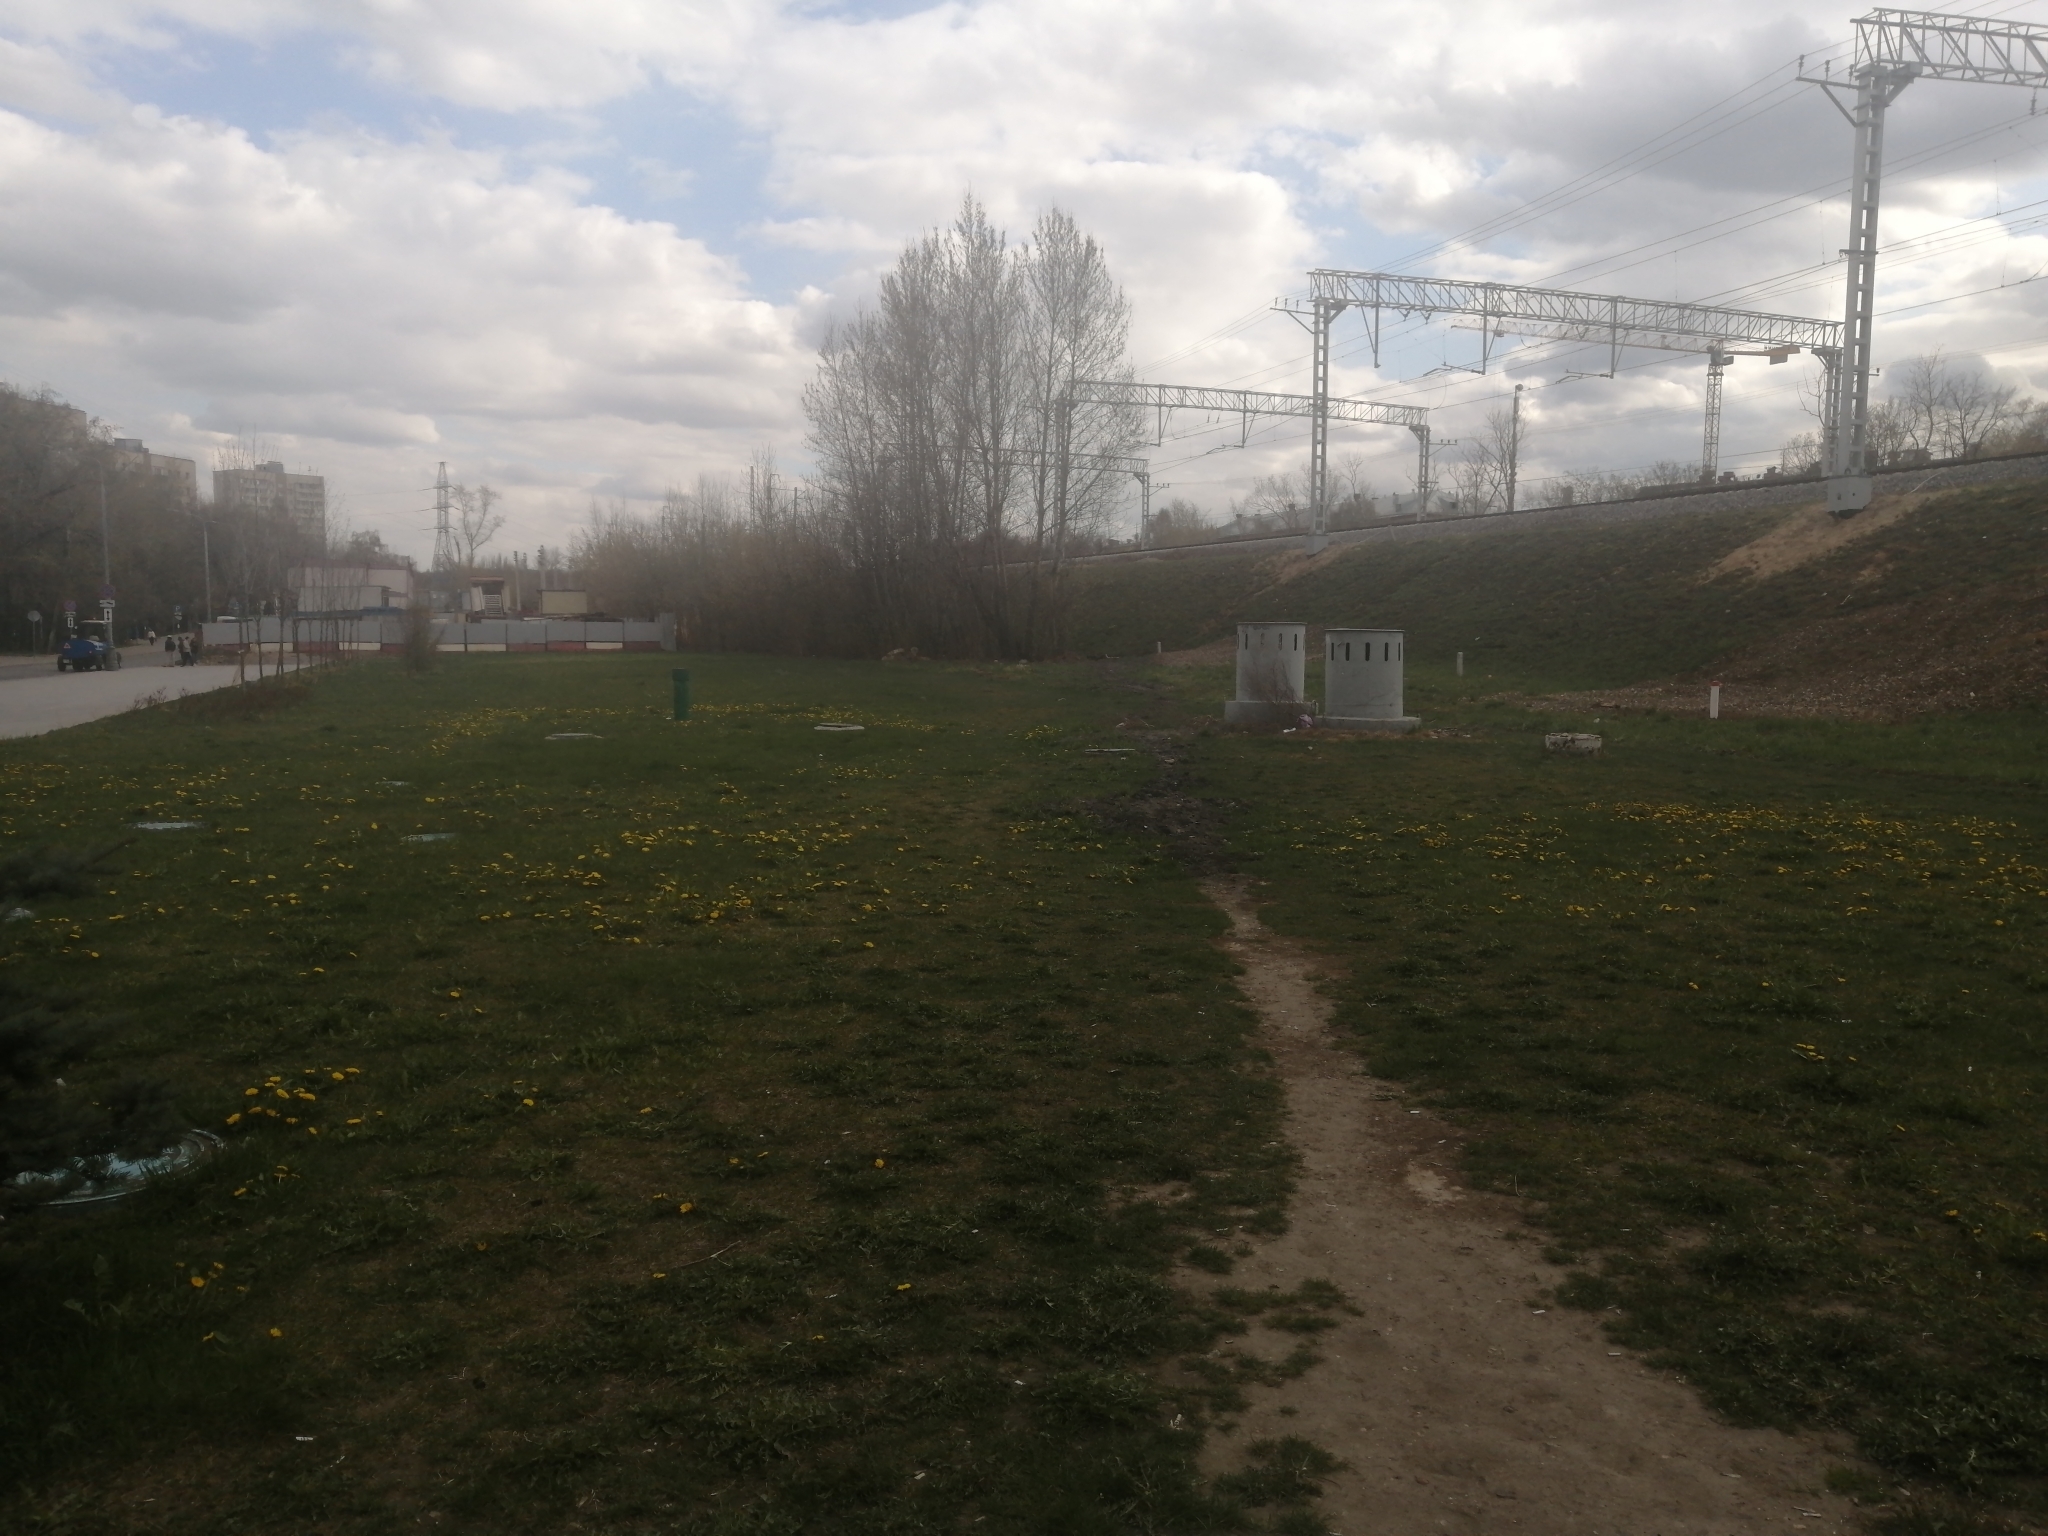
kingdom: Plantae
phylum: Tracheophyta
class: Magnoliopsida
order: Asterales
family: Asteraceae
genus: Taraxacum
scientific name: Taraxacum officinale
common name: Common dandelion
